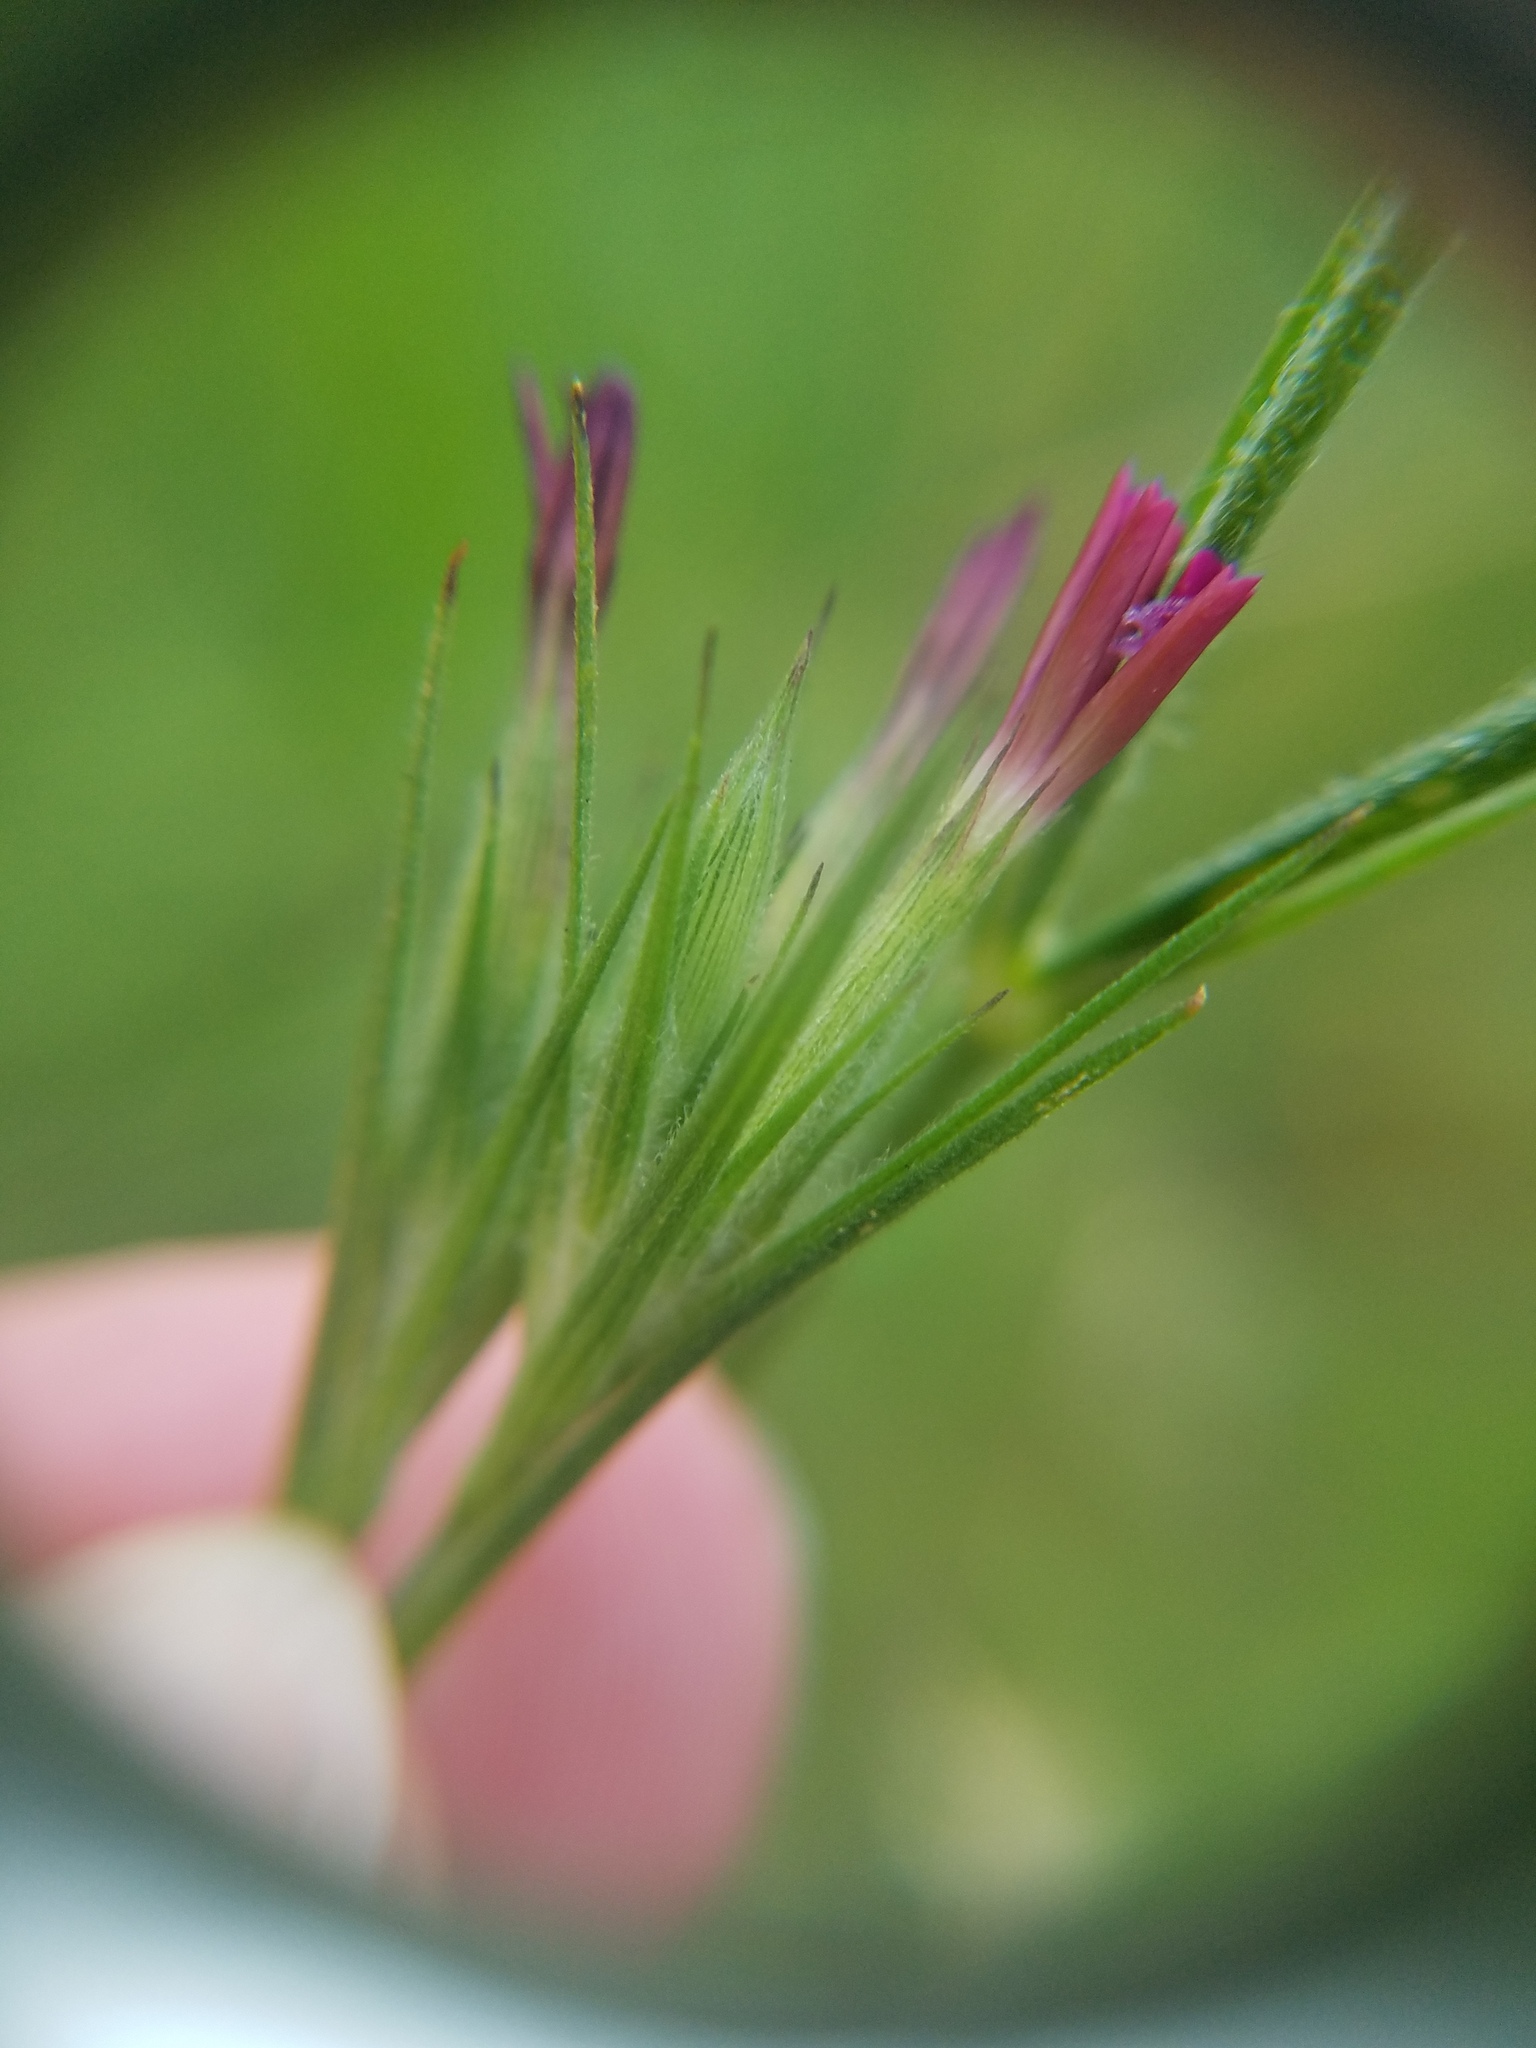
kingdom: Plantae
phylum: Tracheophyta
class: Magnoliopsida
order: Caryophyllales
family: Caryophyllaceae
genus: Dianthus
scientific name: Dianthus armeria
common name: Deptford pink
